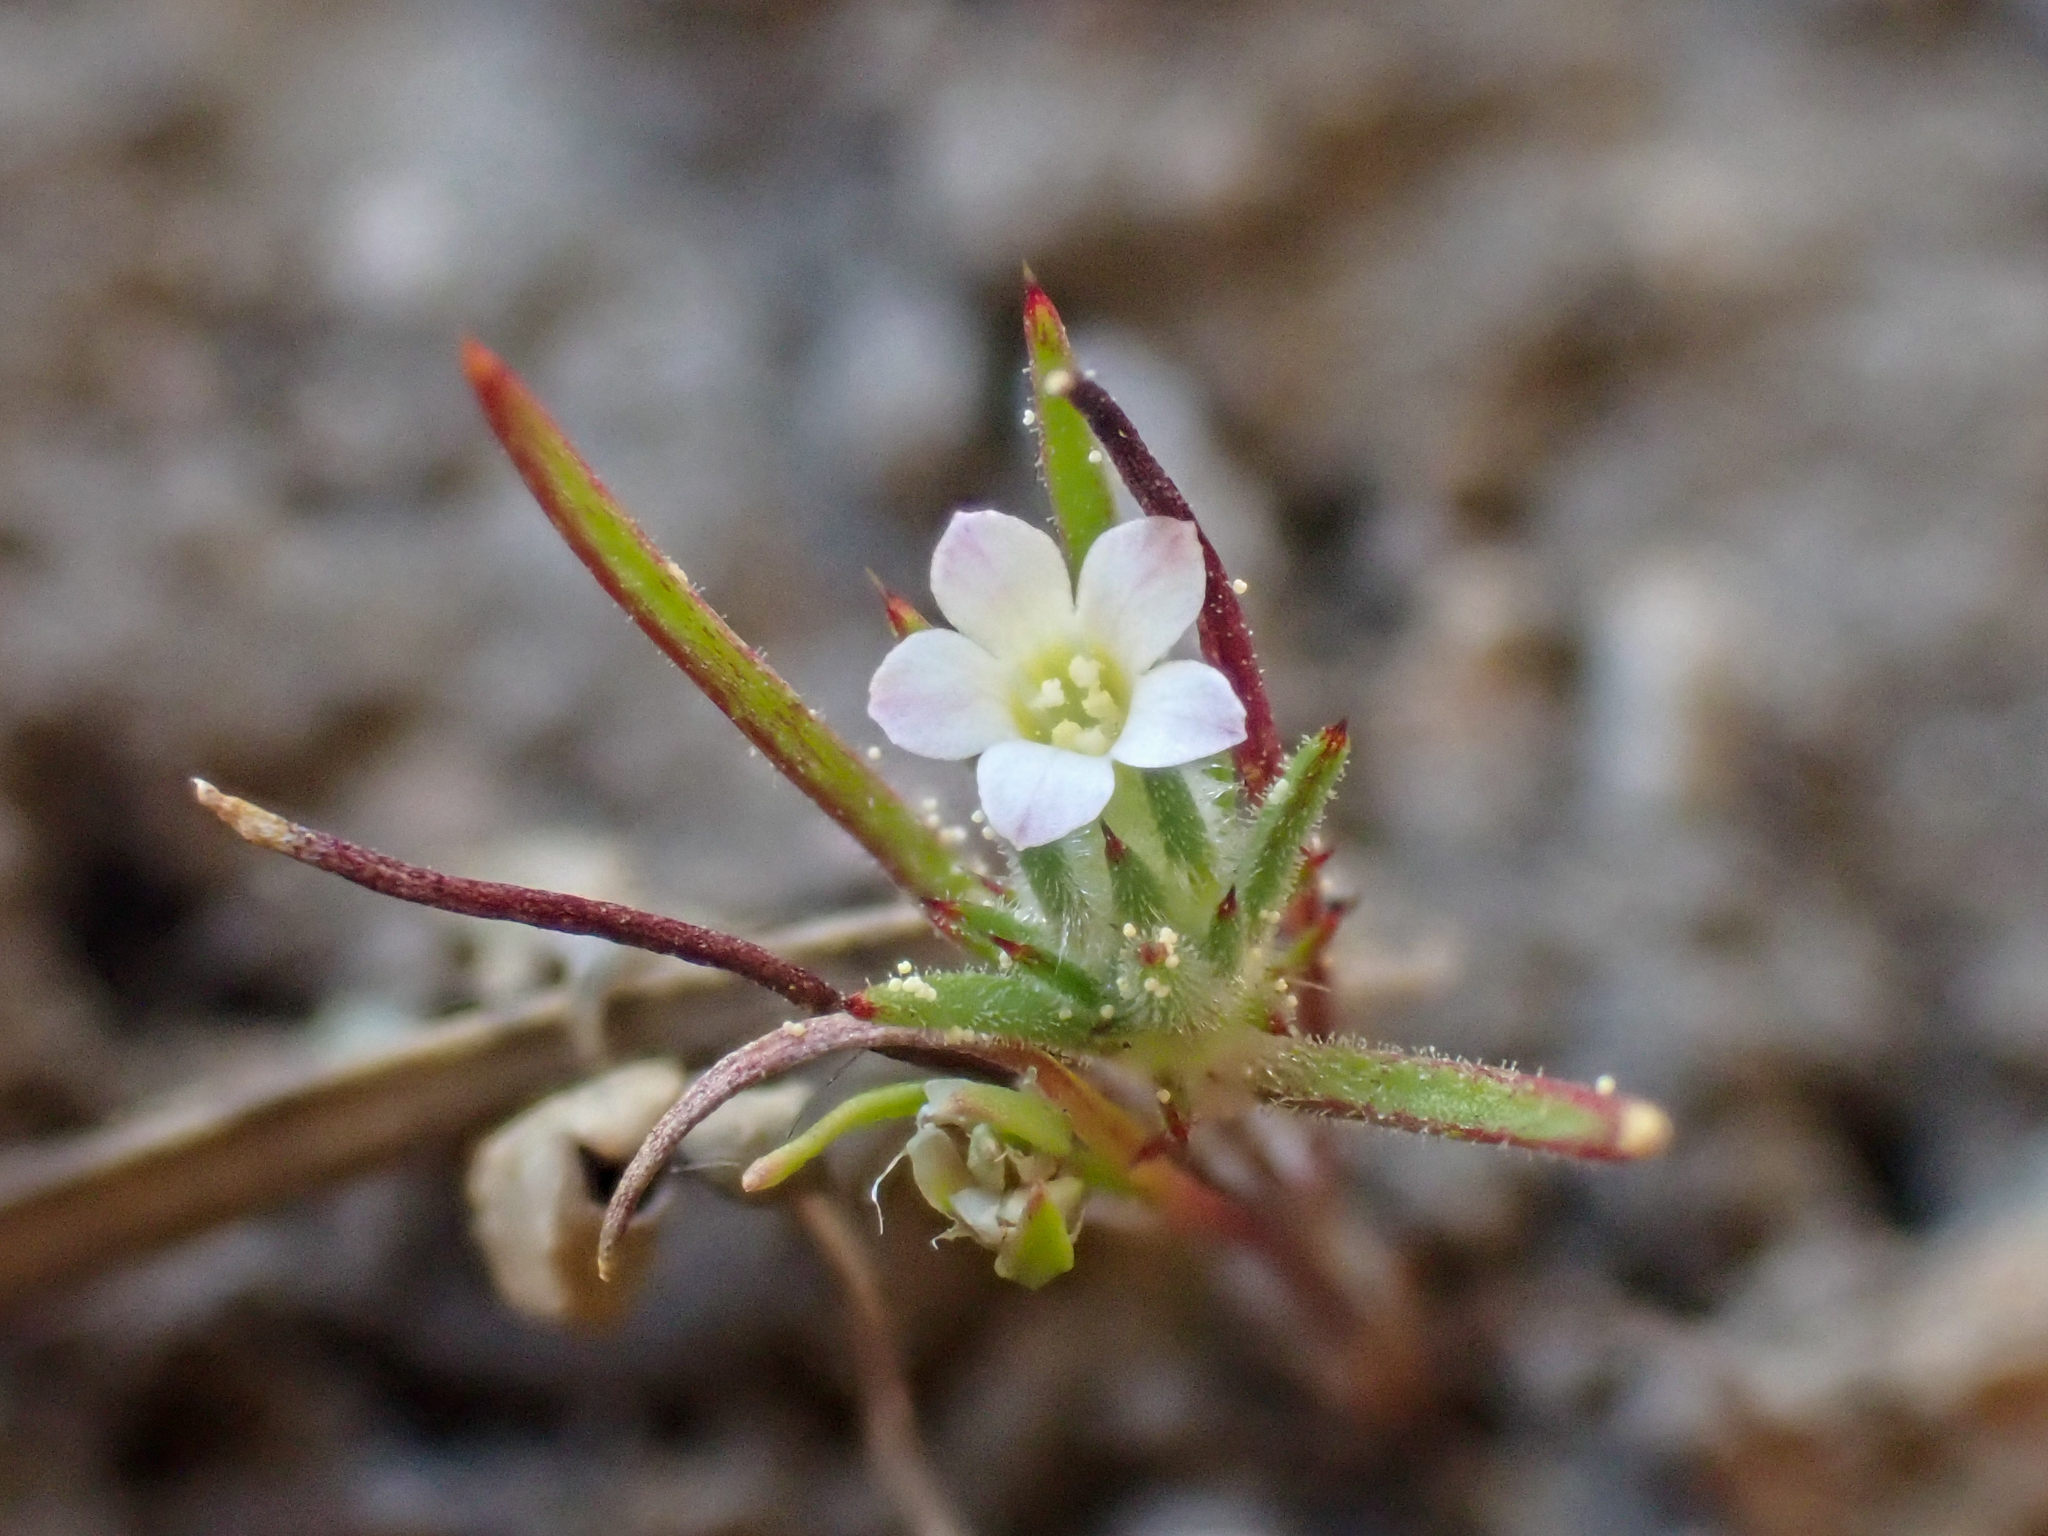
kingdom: Plantae
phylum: Tracheophyta
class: Magnoliopsida
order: Ericales
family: Polemoniaceae
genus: Navarretia
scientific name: Navarretia divaricata
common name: Mountain navarretia
